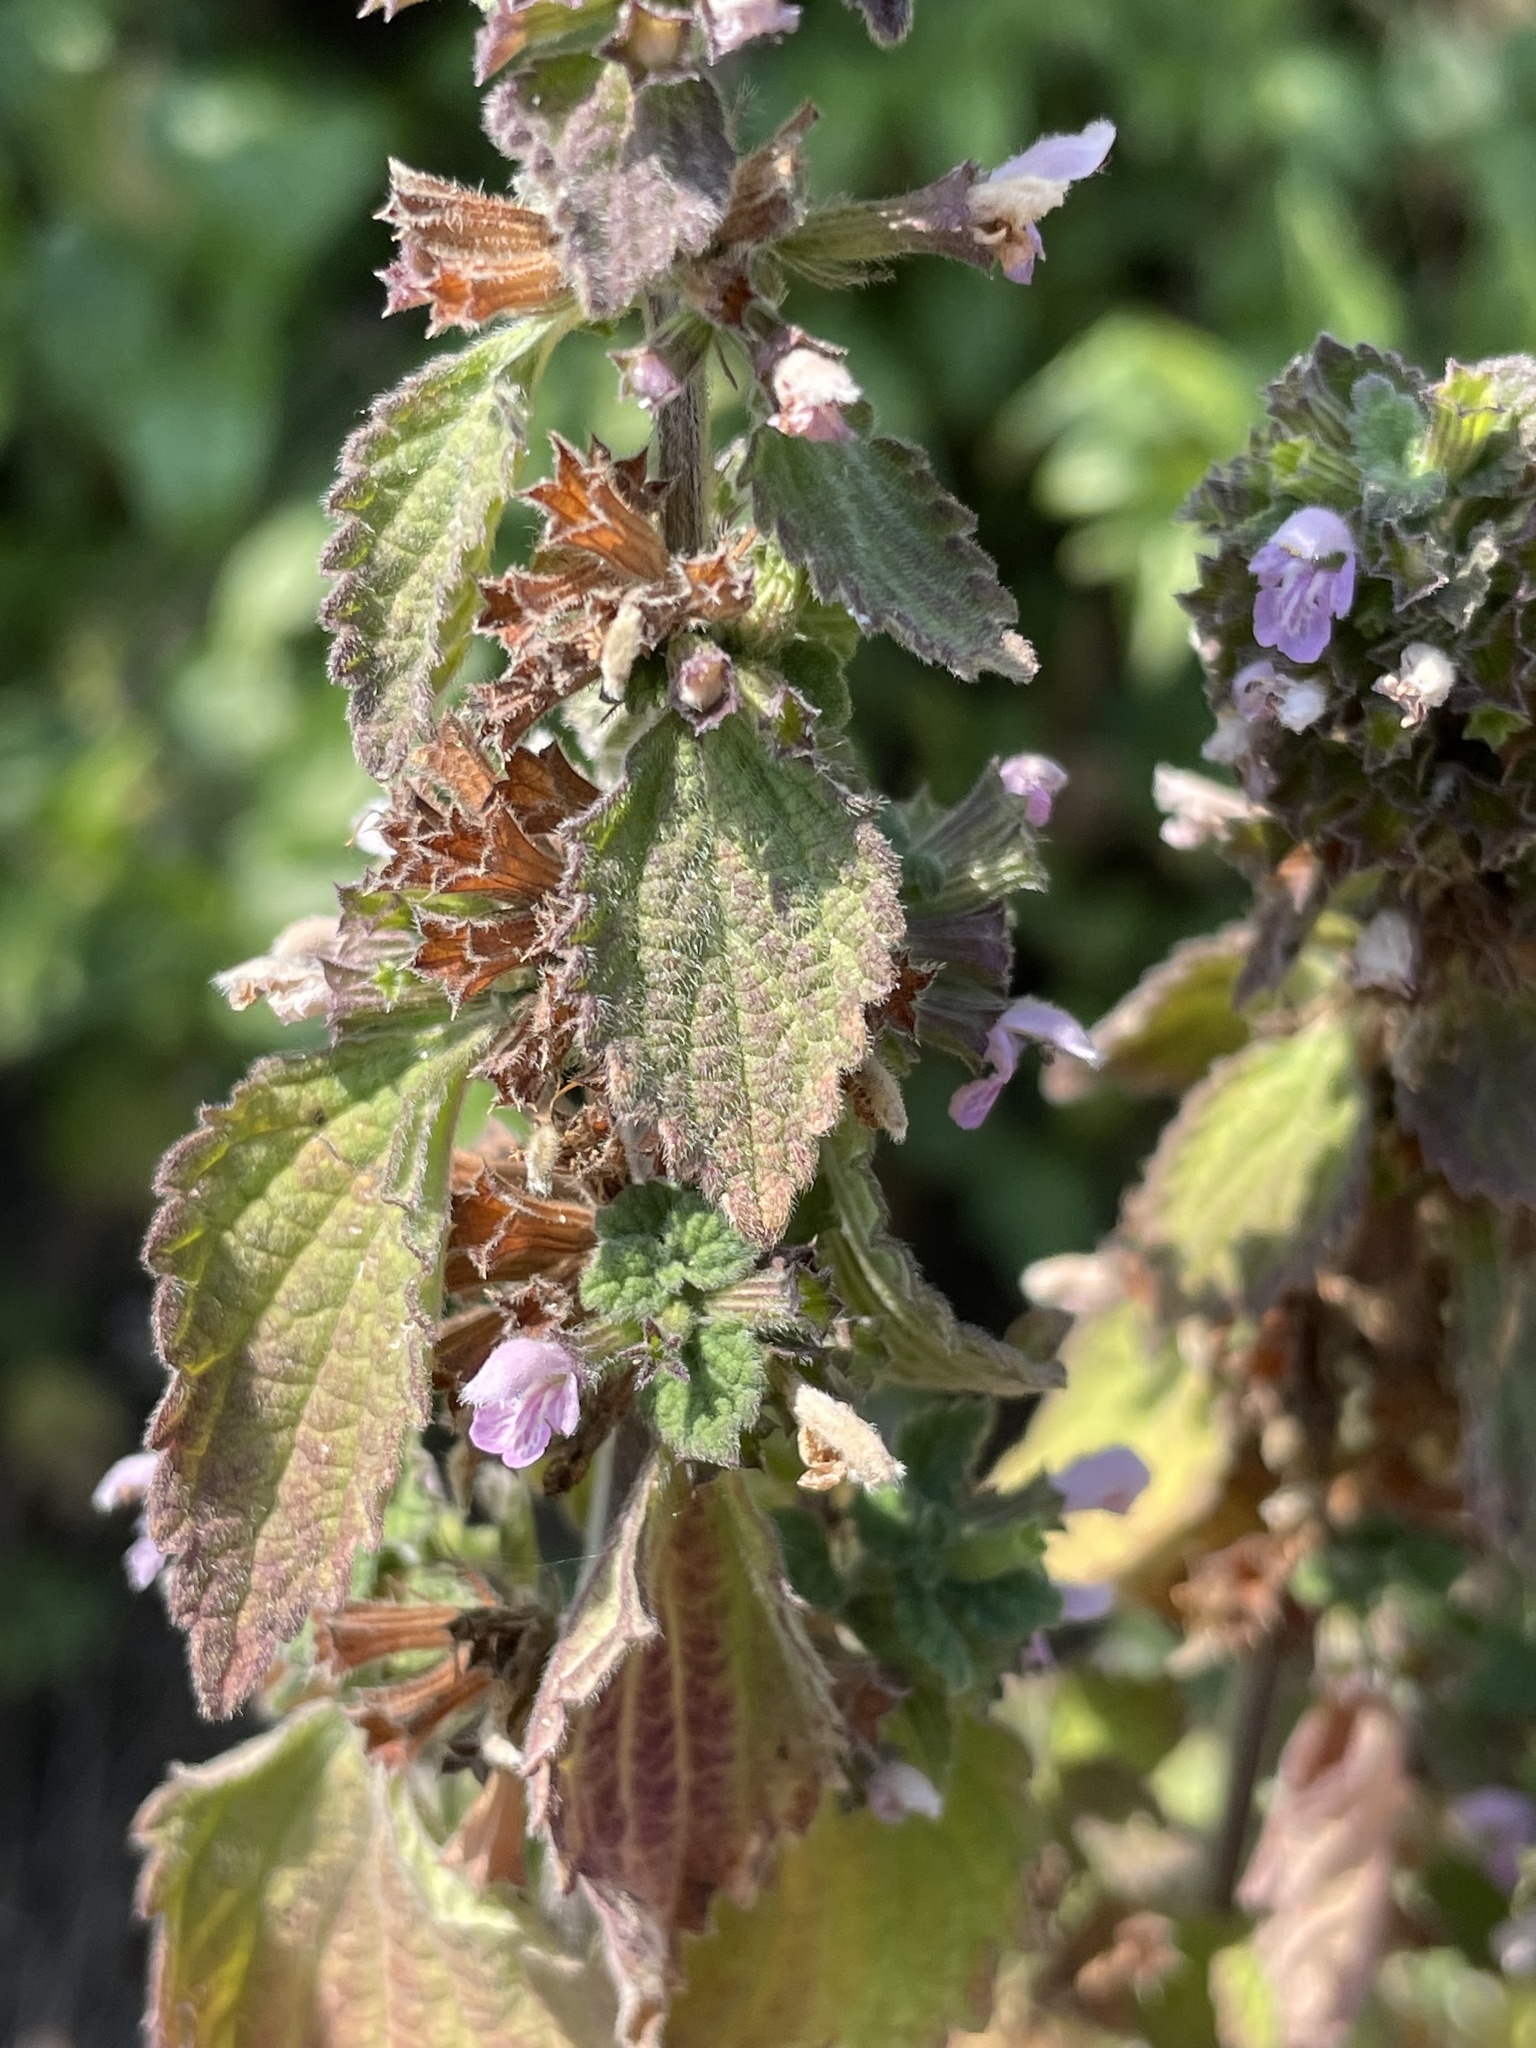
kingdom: Plantae
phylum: Tracheophyta
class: Magnoliopsida
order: Lamiales
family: Lamiaceae
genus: Ballota
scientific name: Ballota nigra
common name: Black horehound
